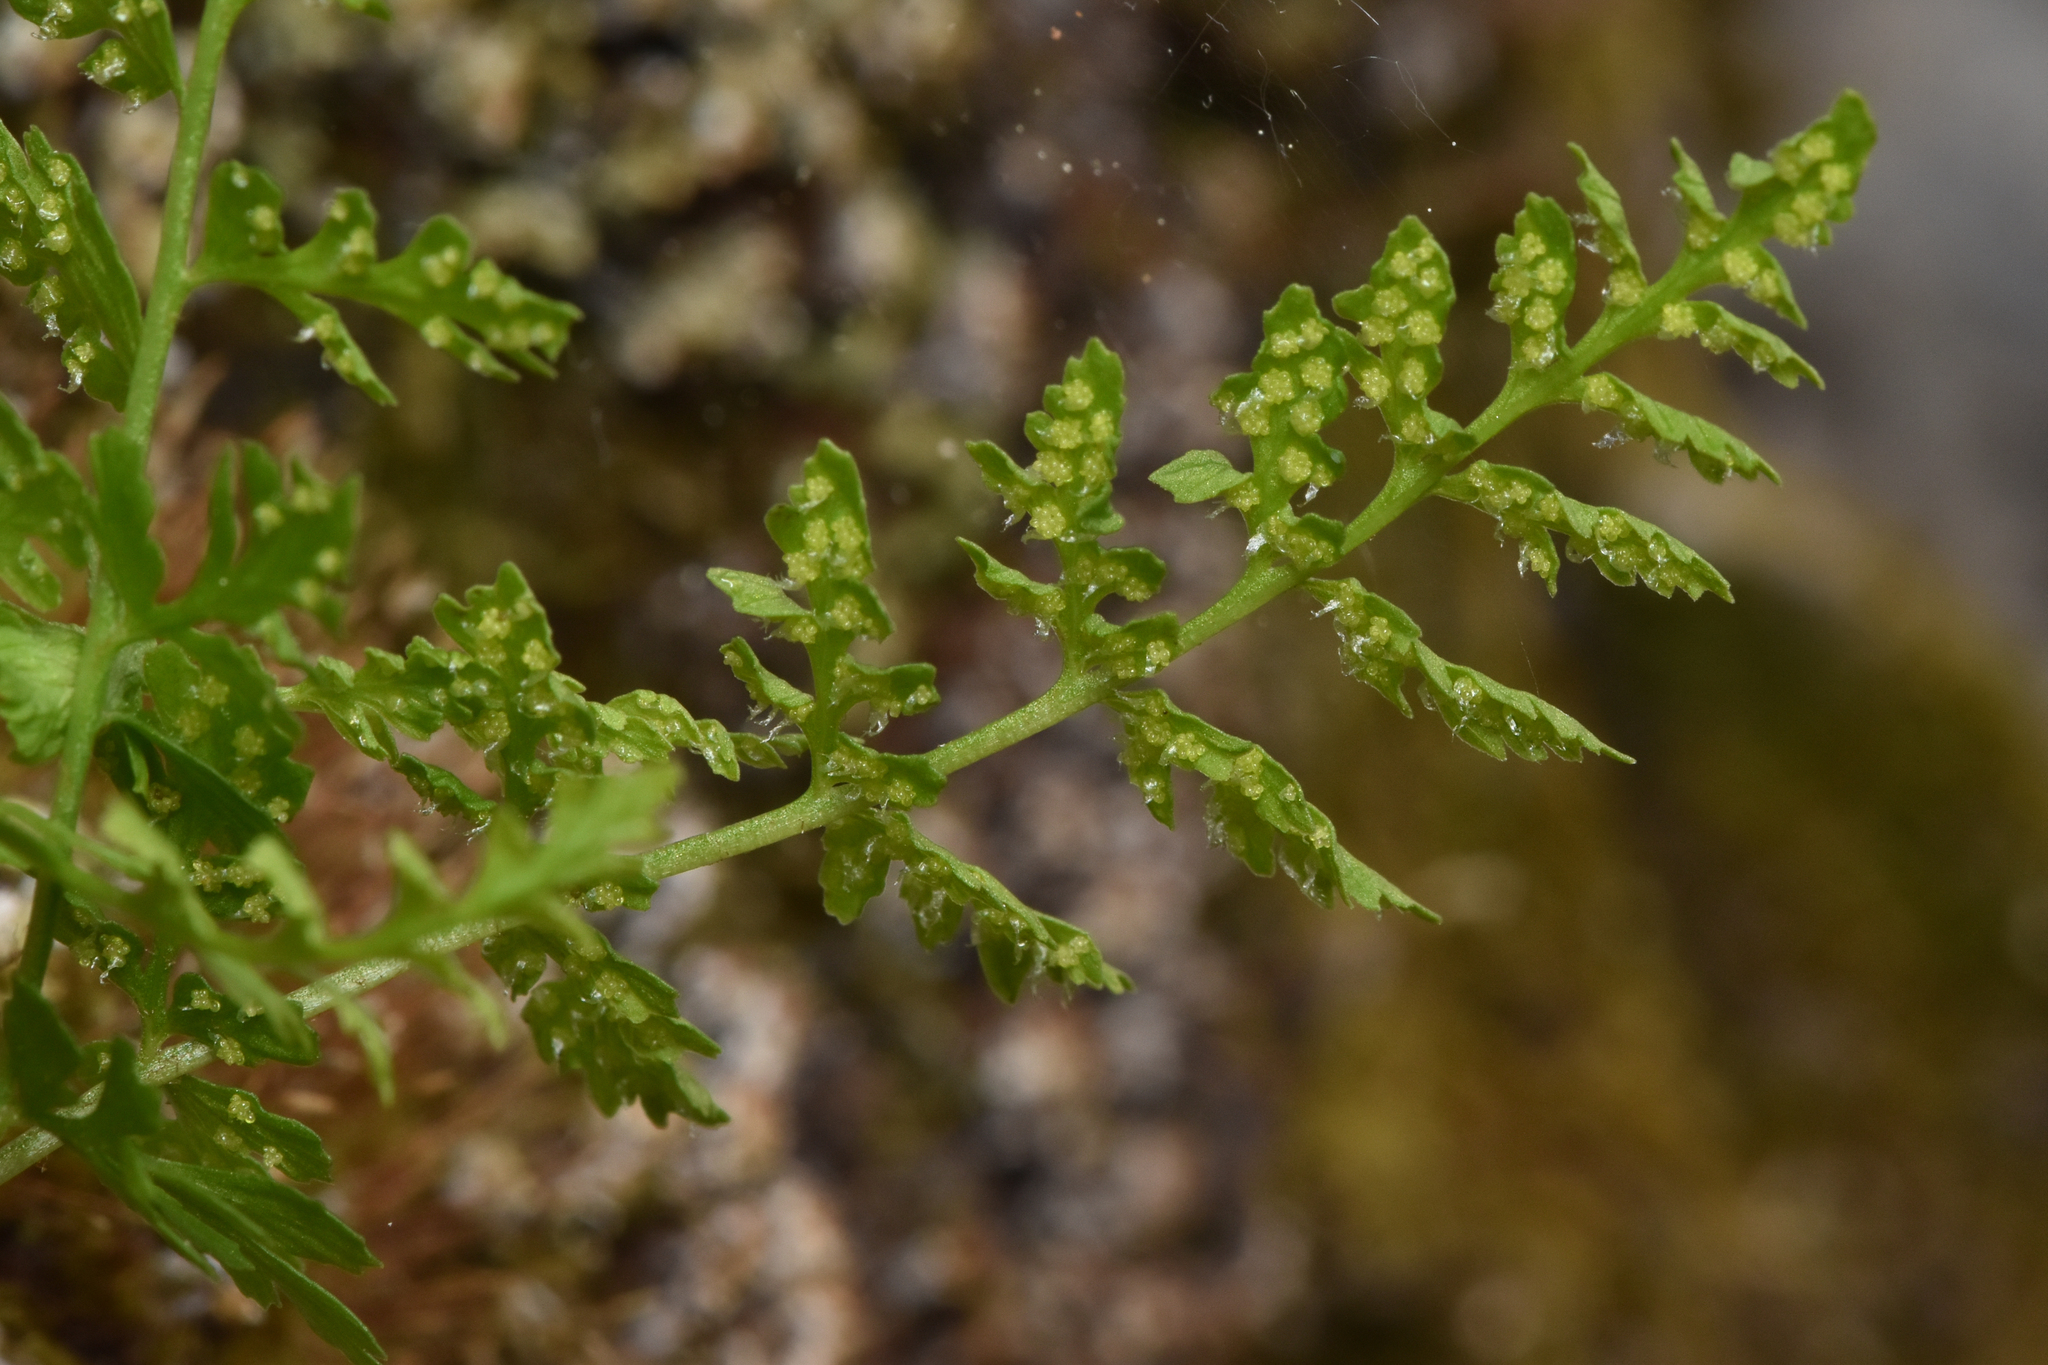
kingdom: Plantae
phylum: Tracheophyta
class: Polypodiopsida
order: Polypodiales
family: Cystopteridaceae
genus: Cystopteris
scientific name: Cystopteris fragilis
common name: Brittle bladder fern
